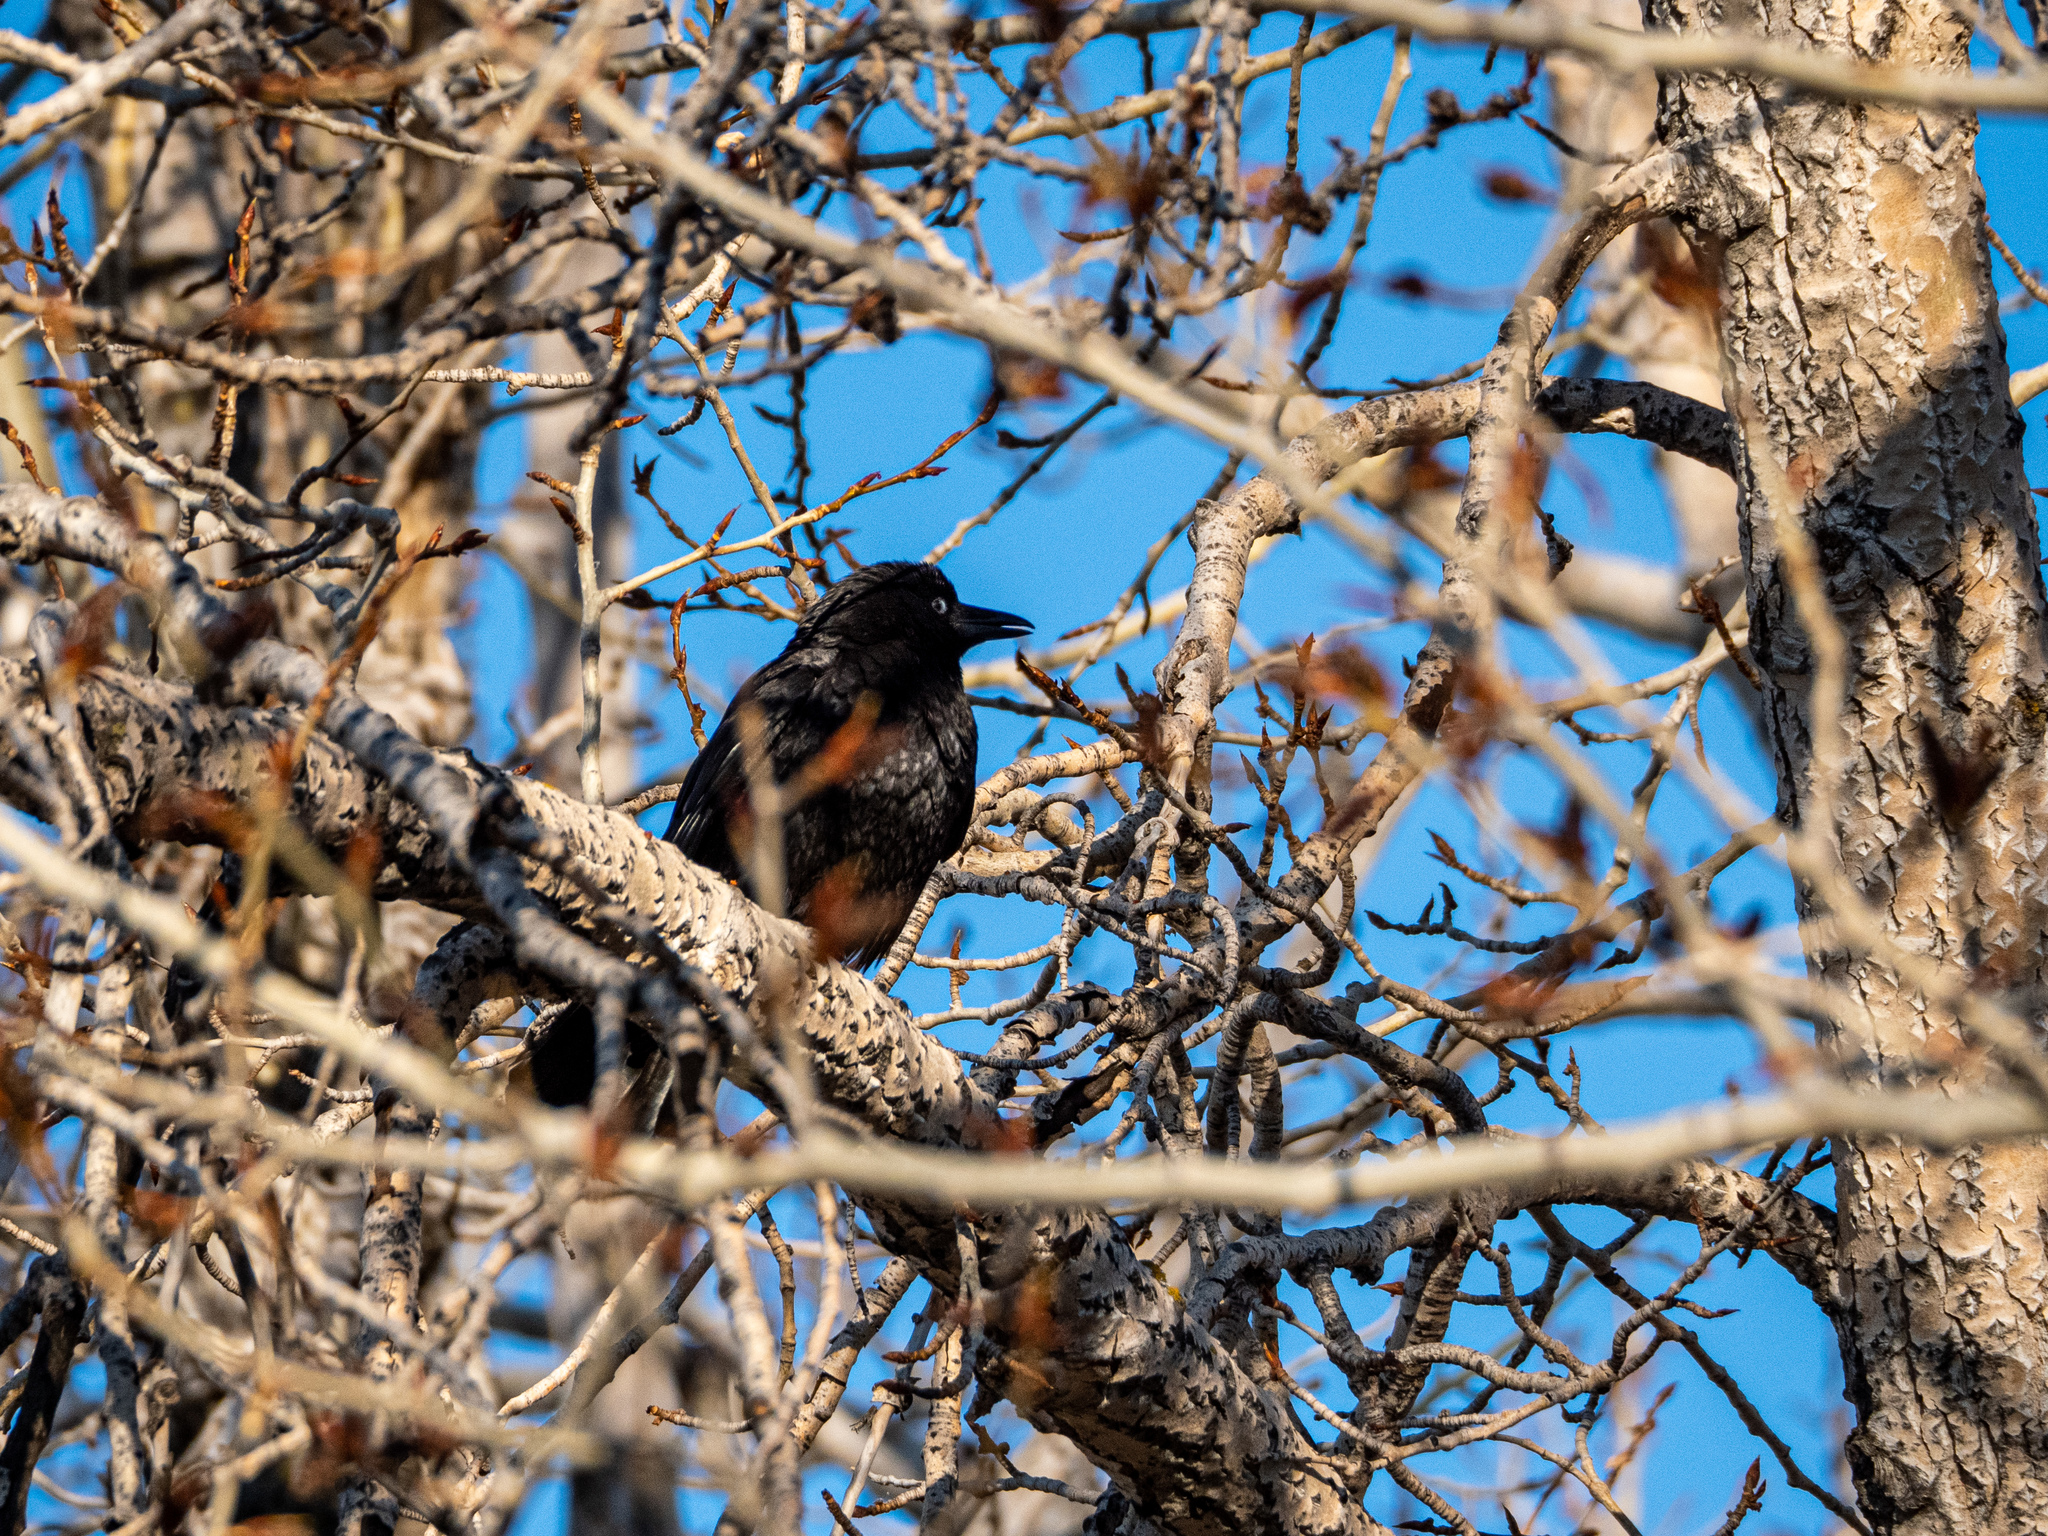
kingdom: Animalia
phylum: Chordata
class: Aves
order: Passeriformes
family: Corvidae
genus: Corvus
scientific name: Corvus brachyrhynchos
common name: American crow
